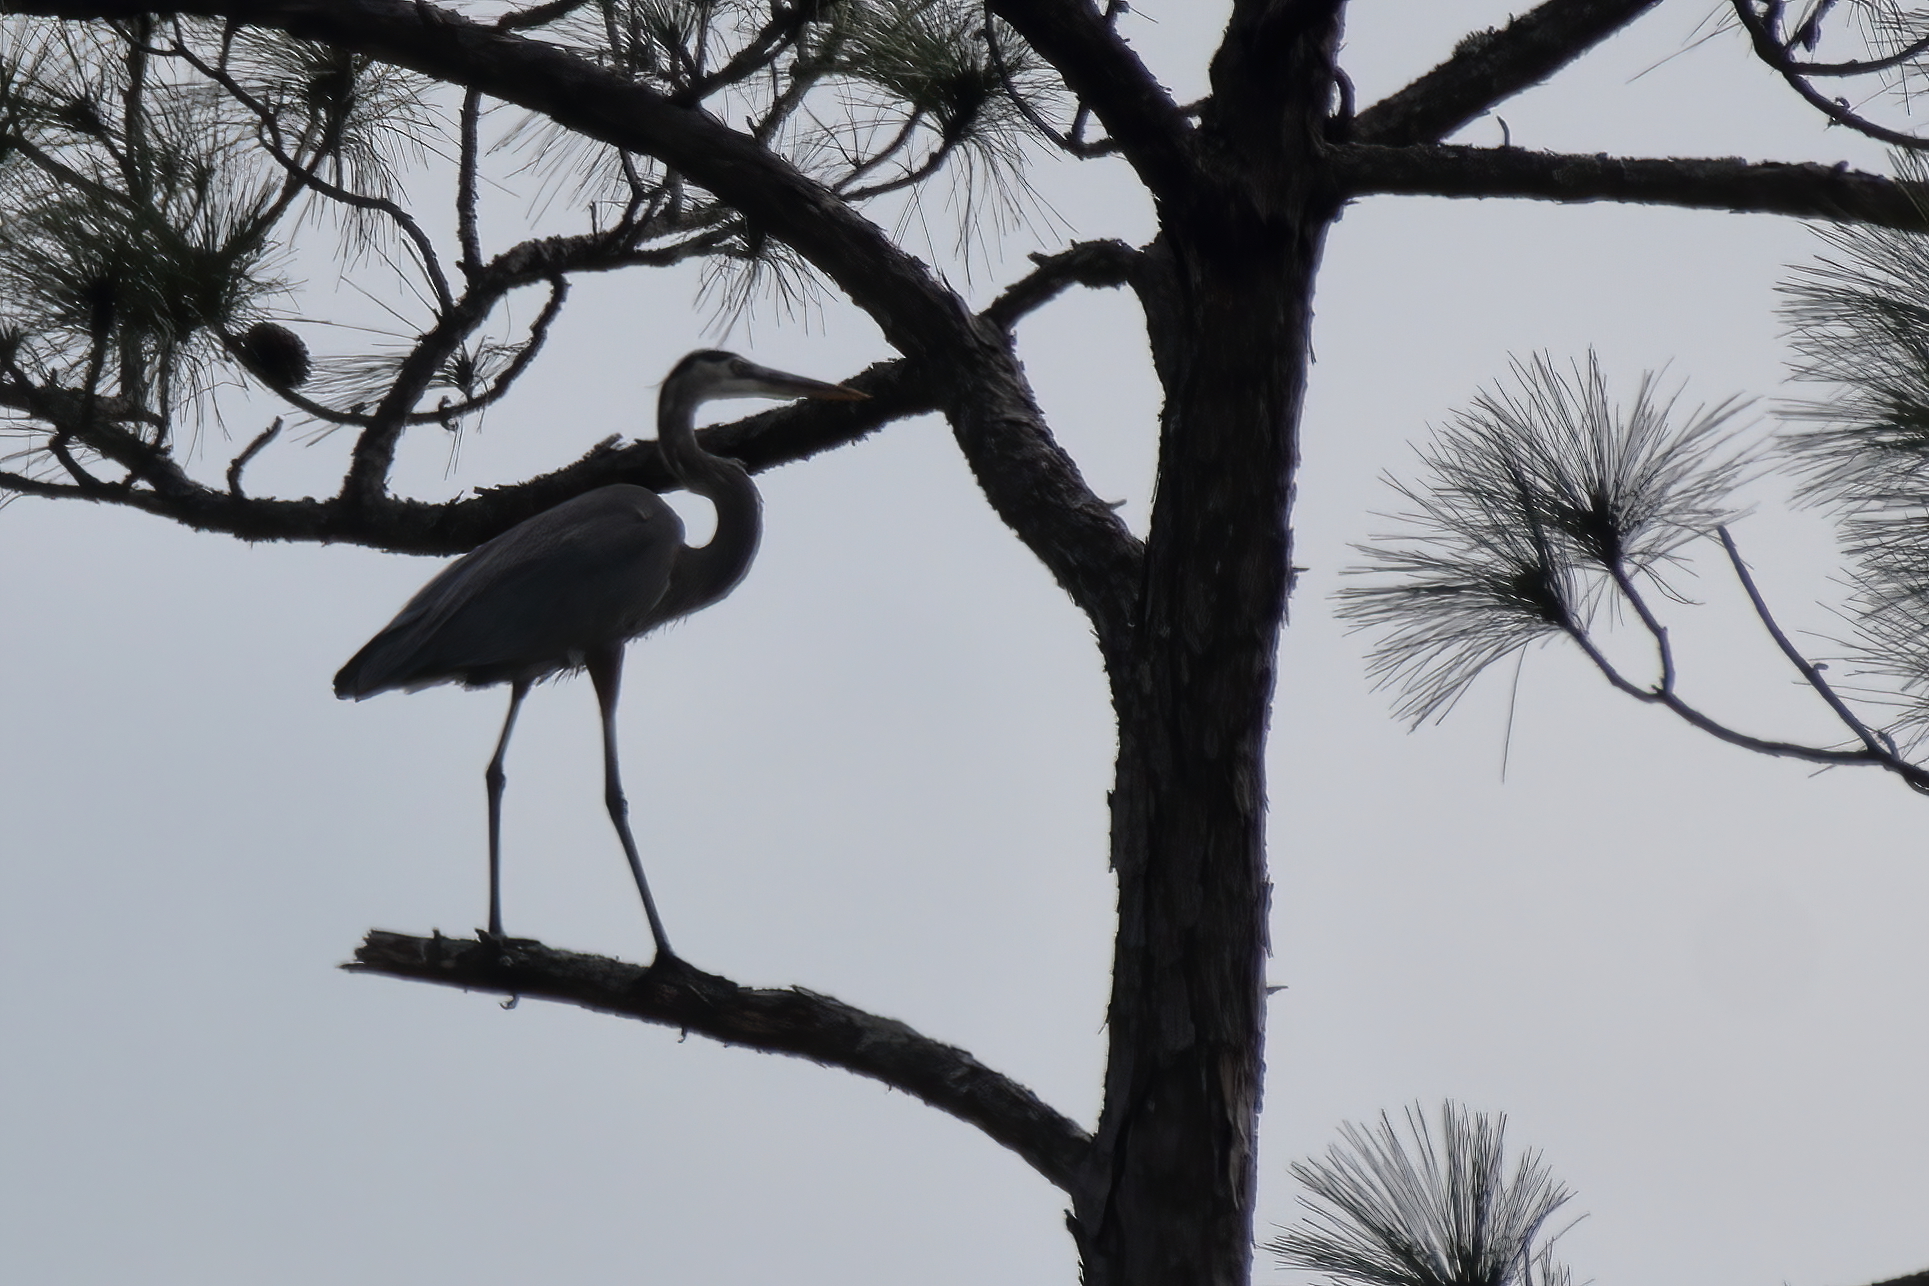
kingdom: Animalia
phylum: Chordata
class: Aves
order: Pelecaniformes
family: Ardeidae
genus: Ardea
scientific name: Ardea herodias
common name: Great blue heron
